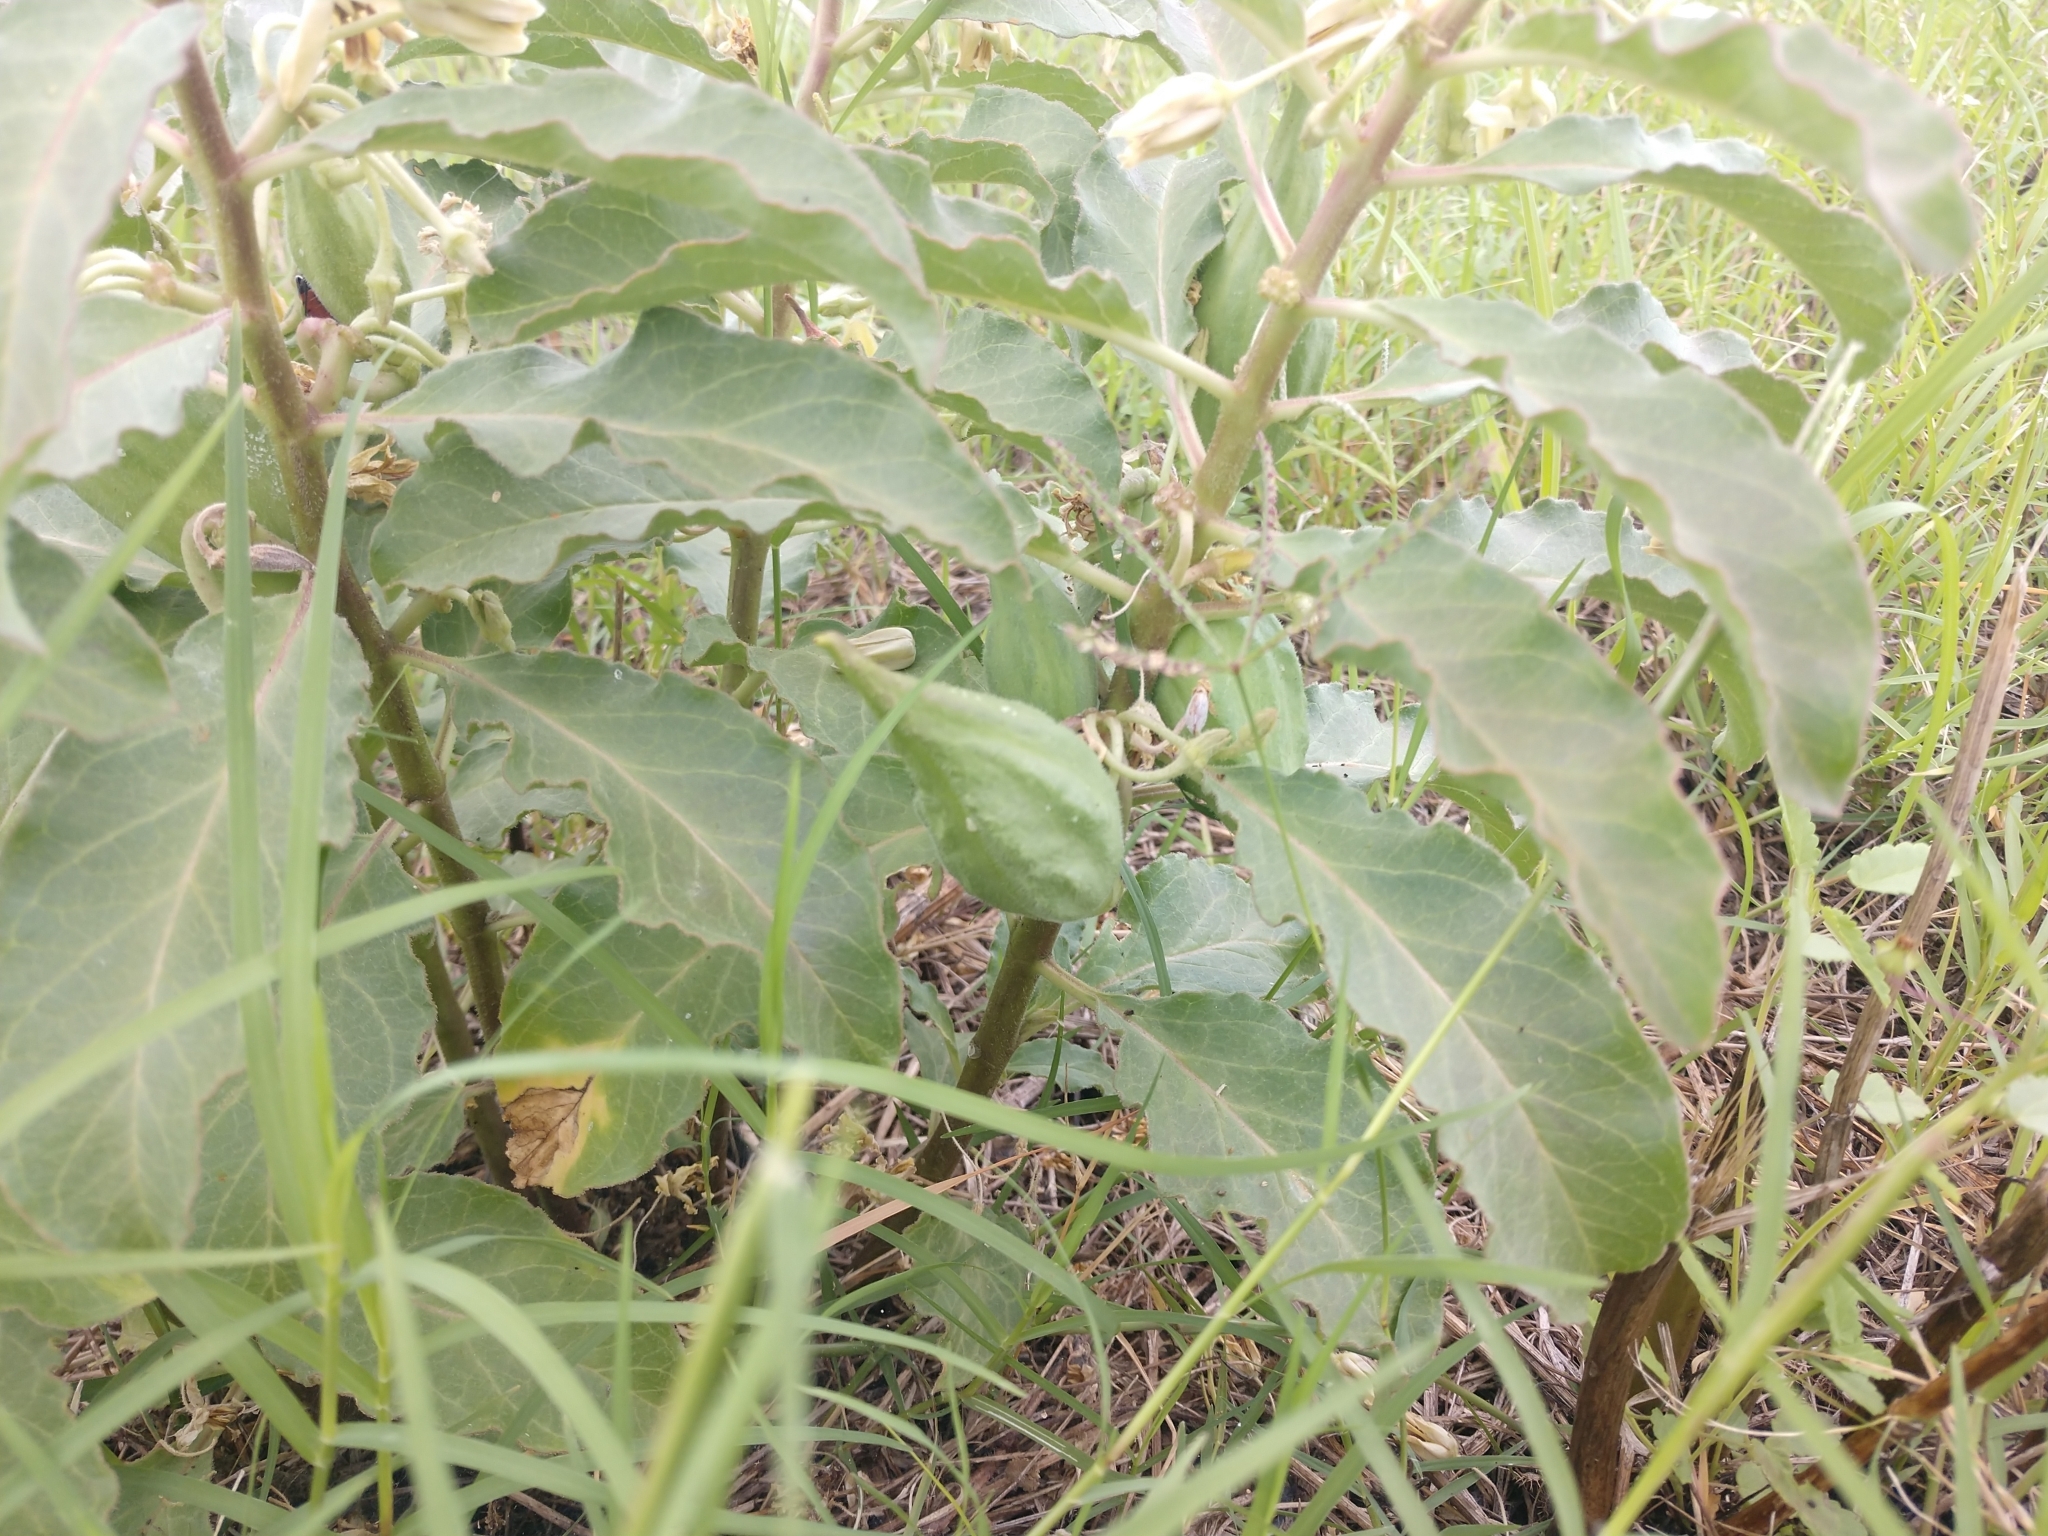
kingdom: Plantae
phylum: Tracheophyta
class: Magnoliopsida
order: Gentianales
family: Apocynaceae
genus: Asclepias
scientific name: Asclepias oenotheroides
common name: Zizotes milkweed
